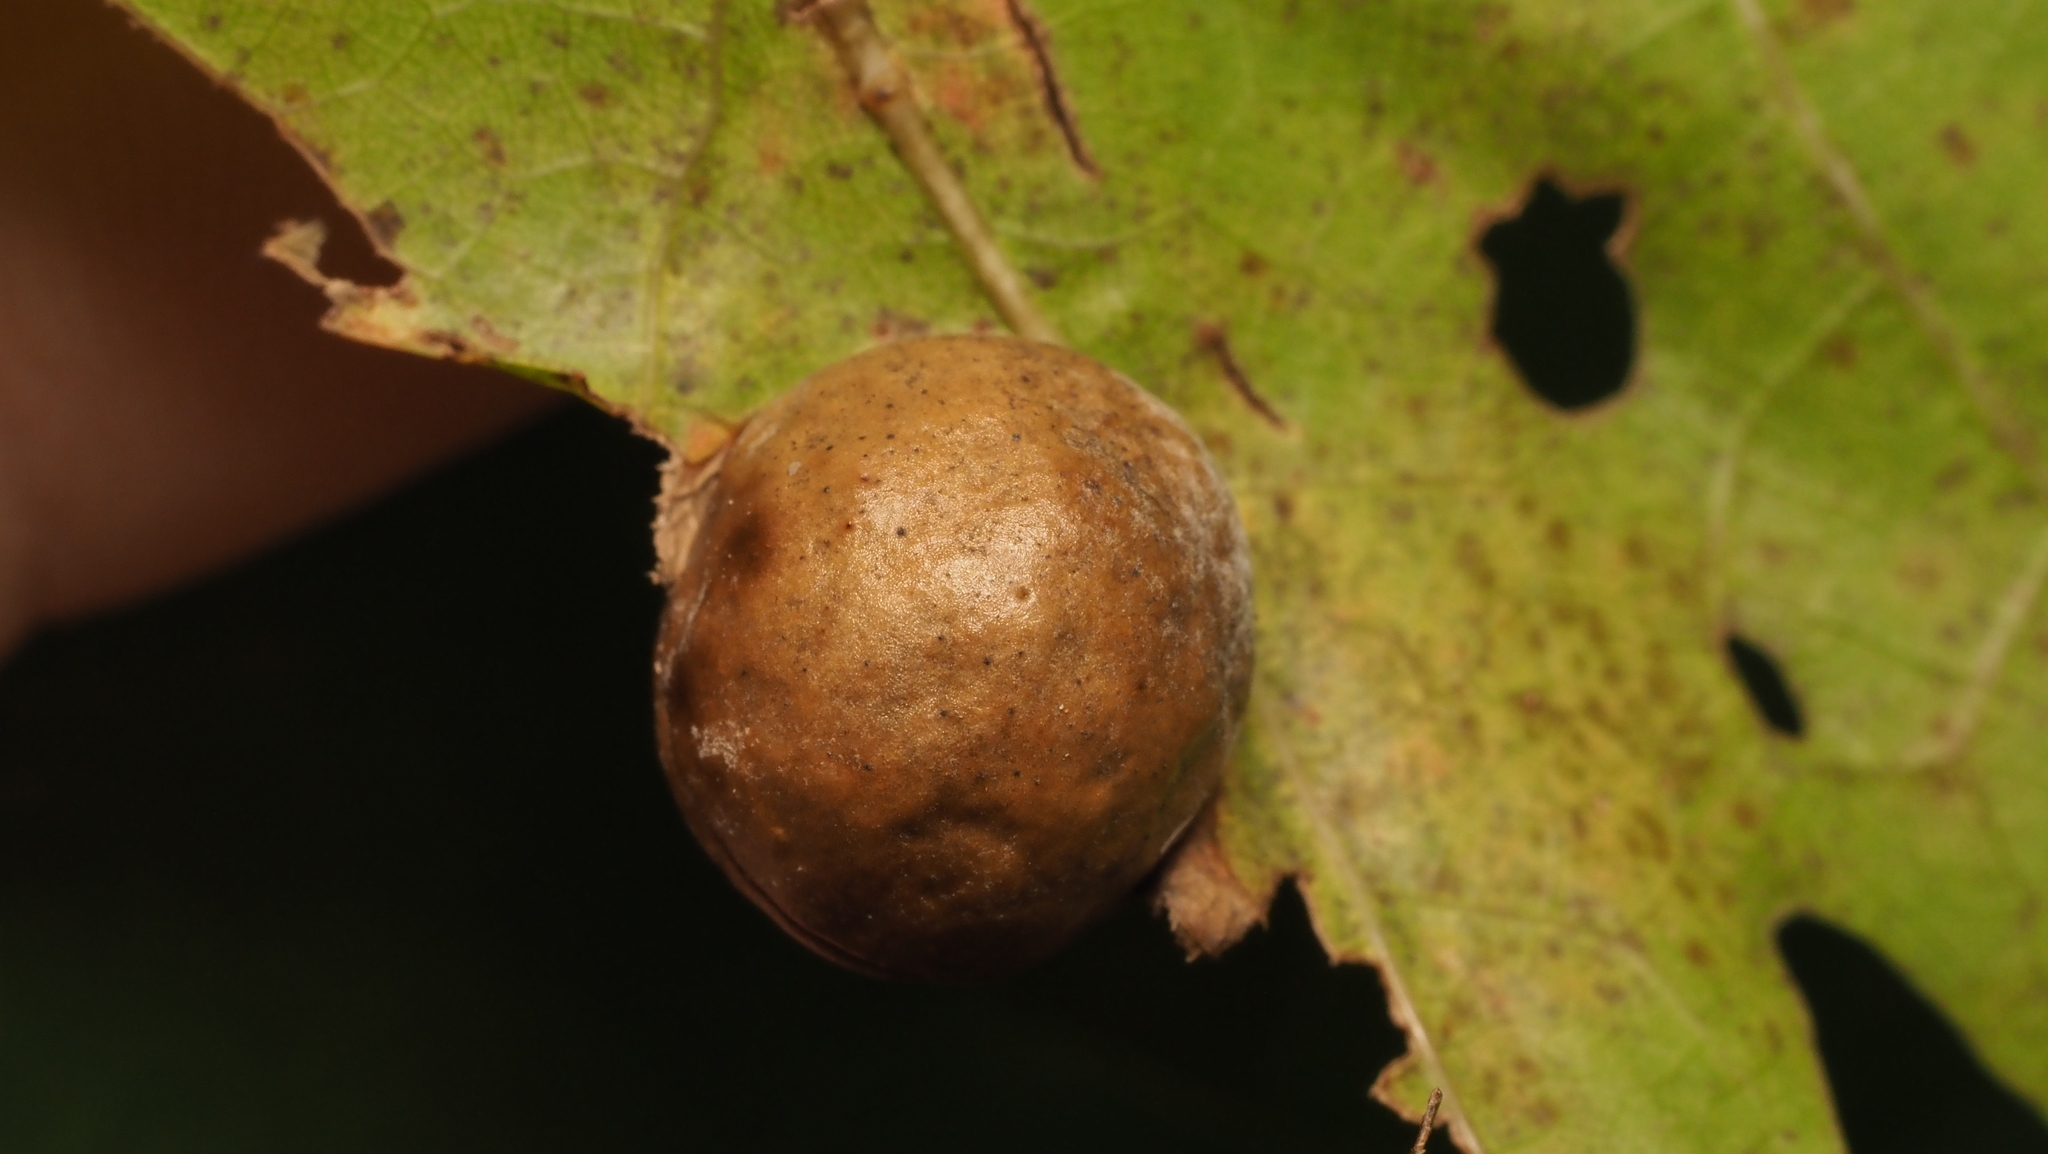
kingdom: Animalia
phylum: Arthropoda
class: Insecta
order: Hymenoptera
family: Cynipidae
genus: Amphibolips
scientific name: Amphibolips
